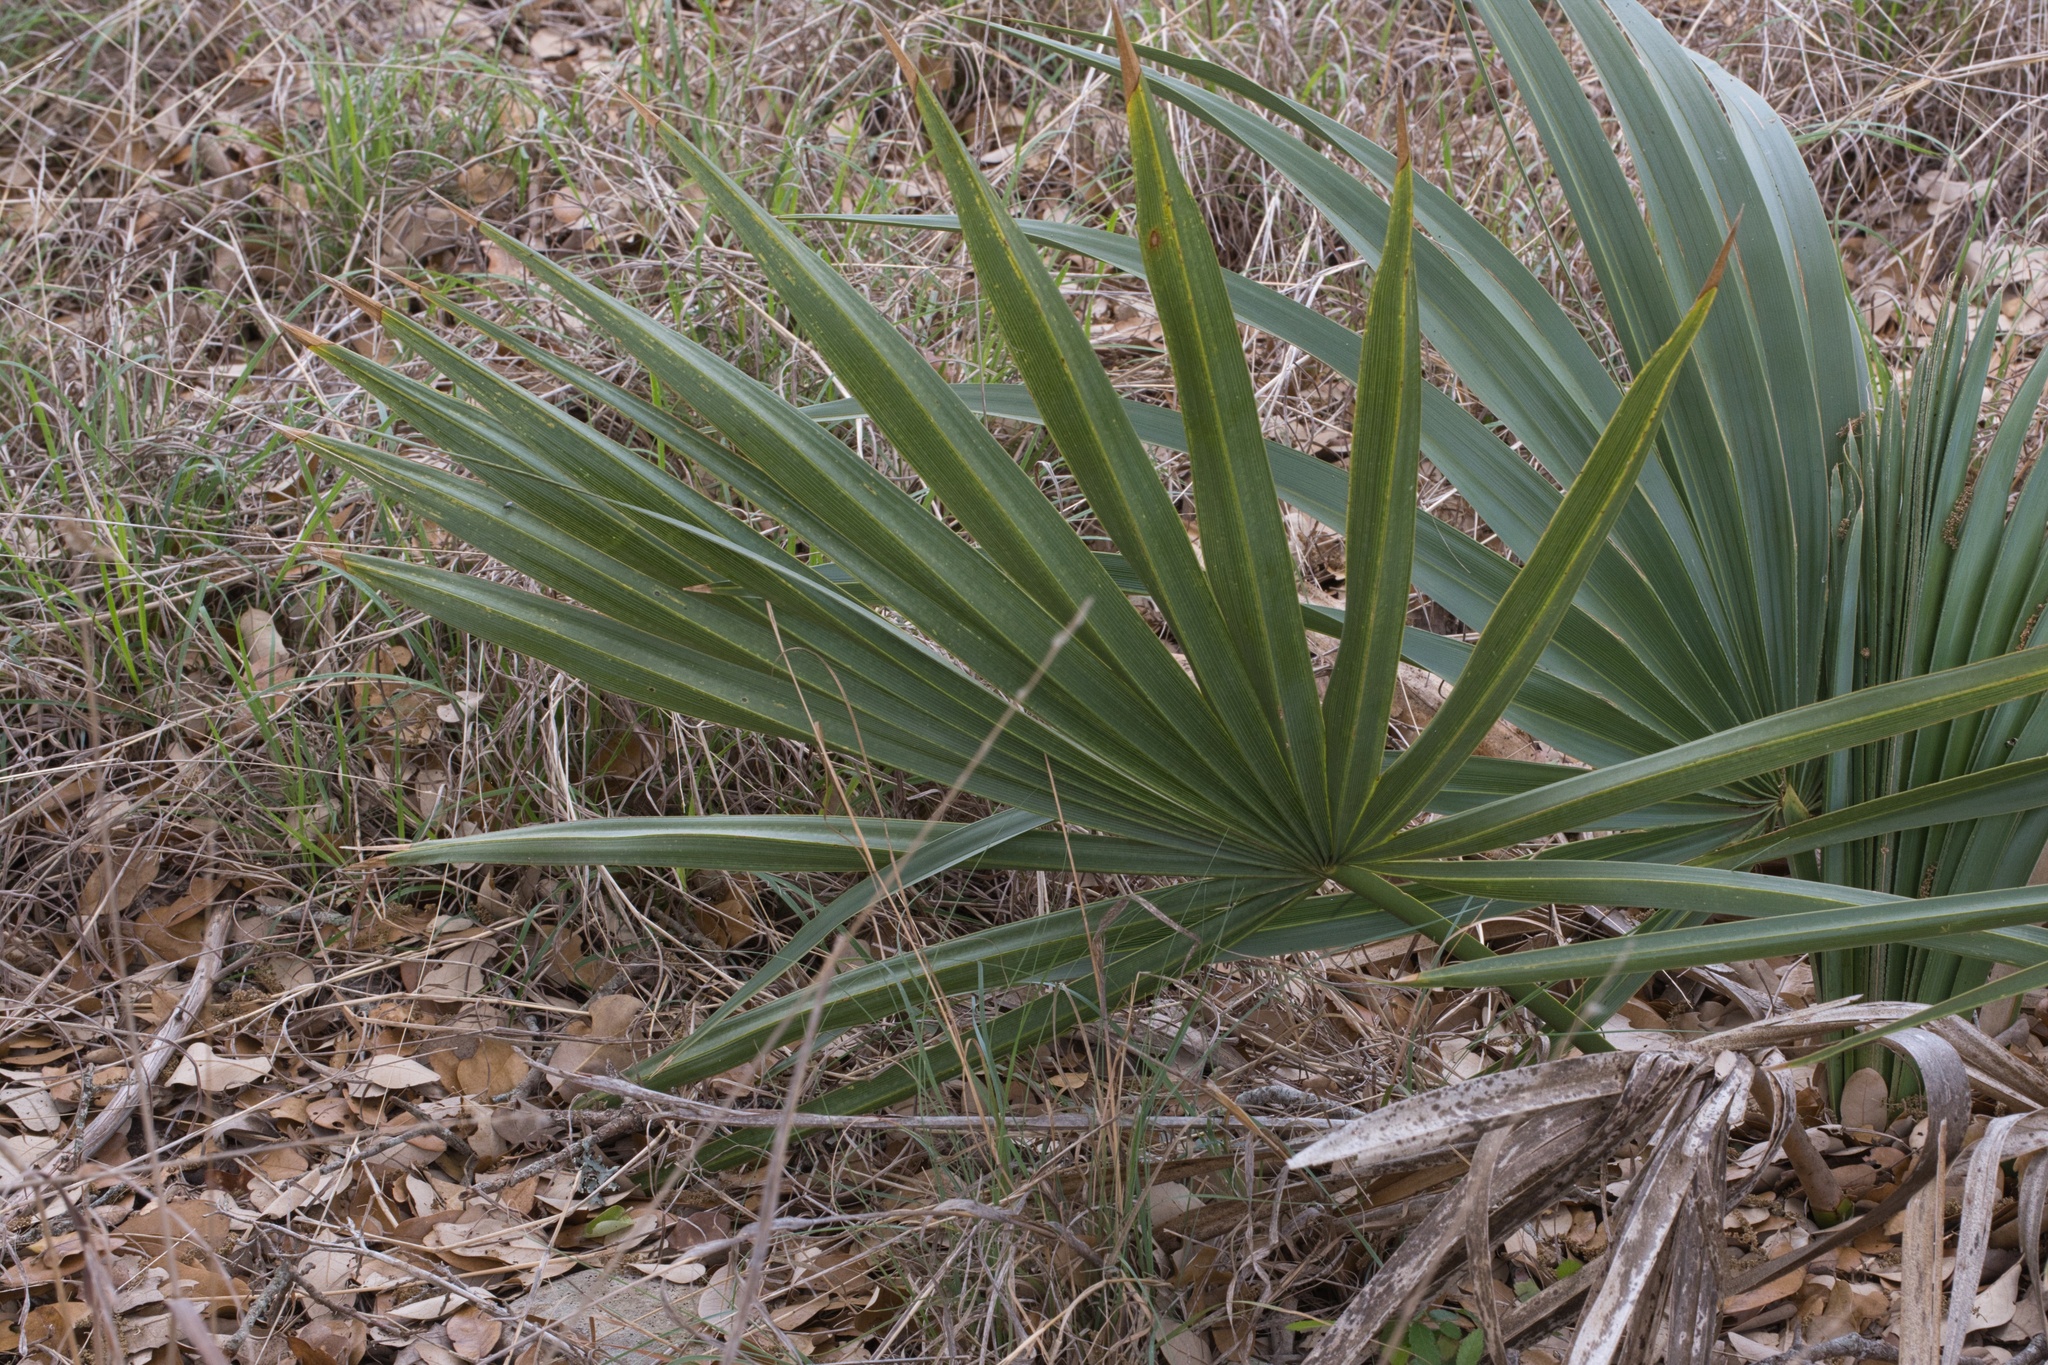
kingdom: Plantae
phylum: Tracheophyta
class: Liliopsida
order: Arecales
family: Arecaceae
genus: Sabal
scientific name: Sabal minor
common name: Dwarf palmetto
